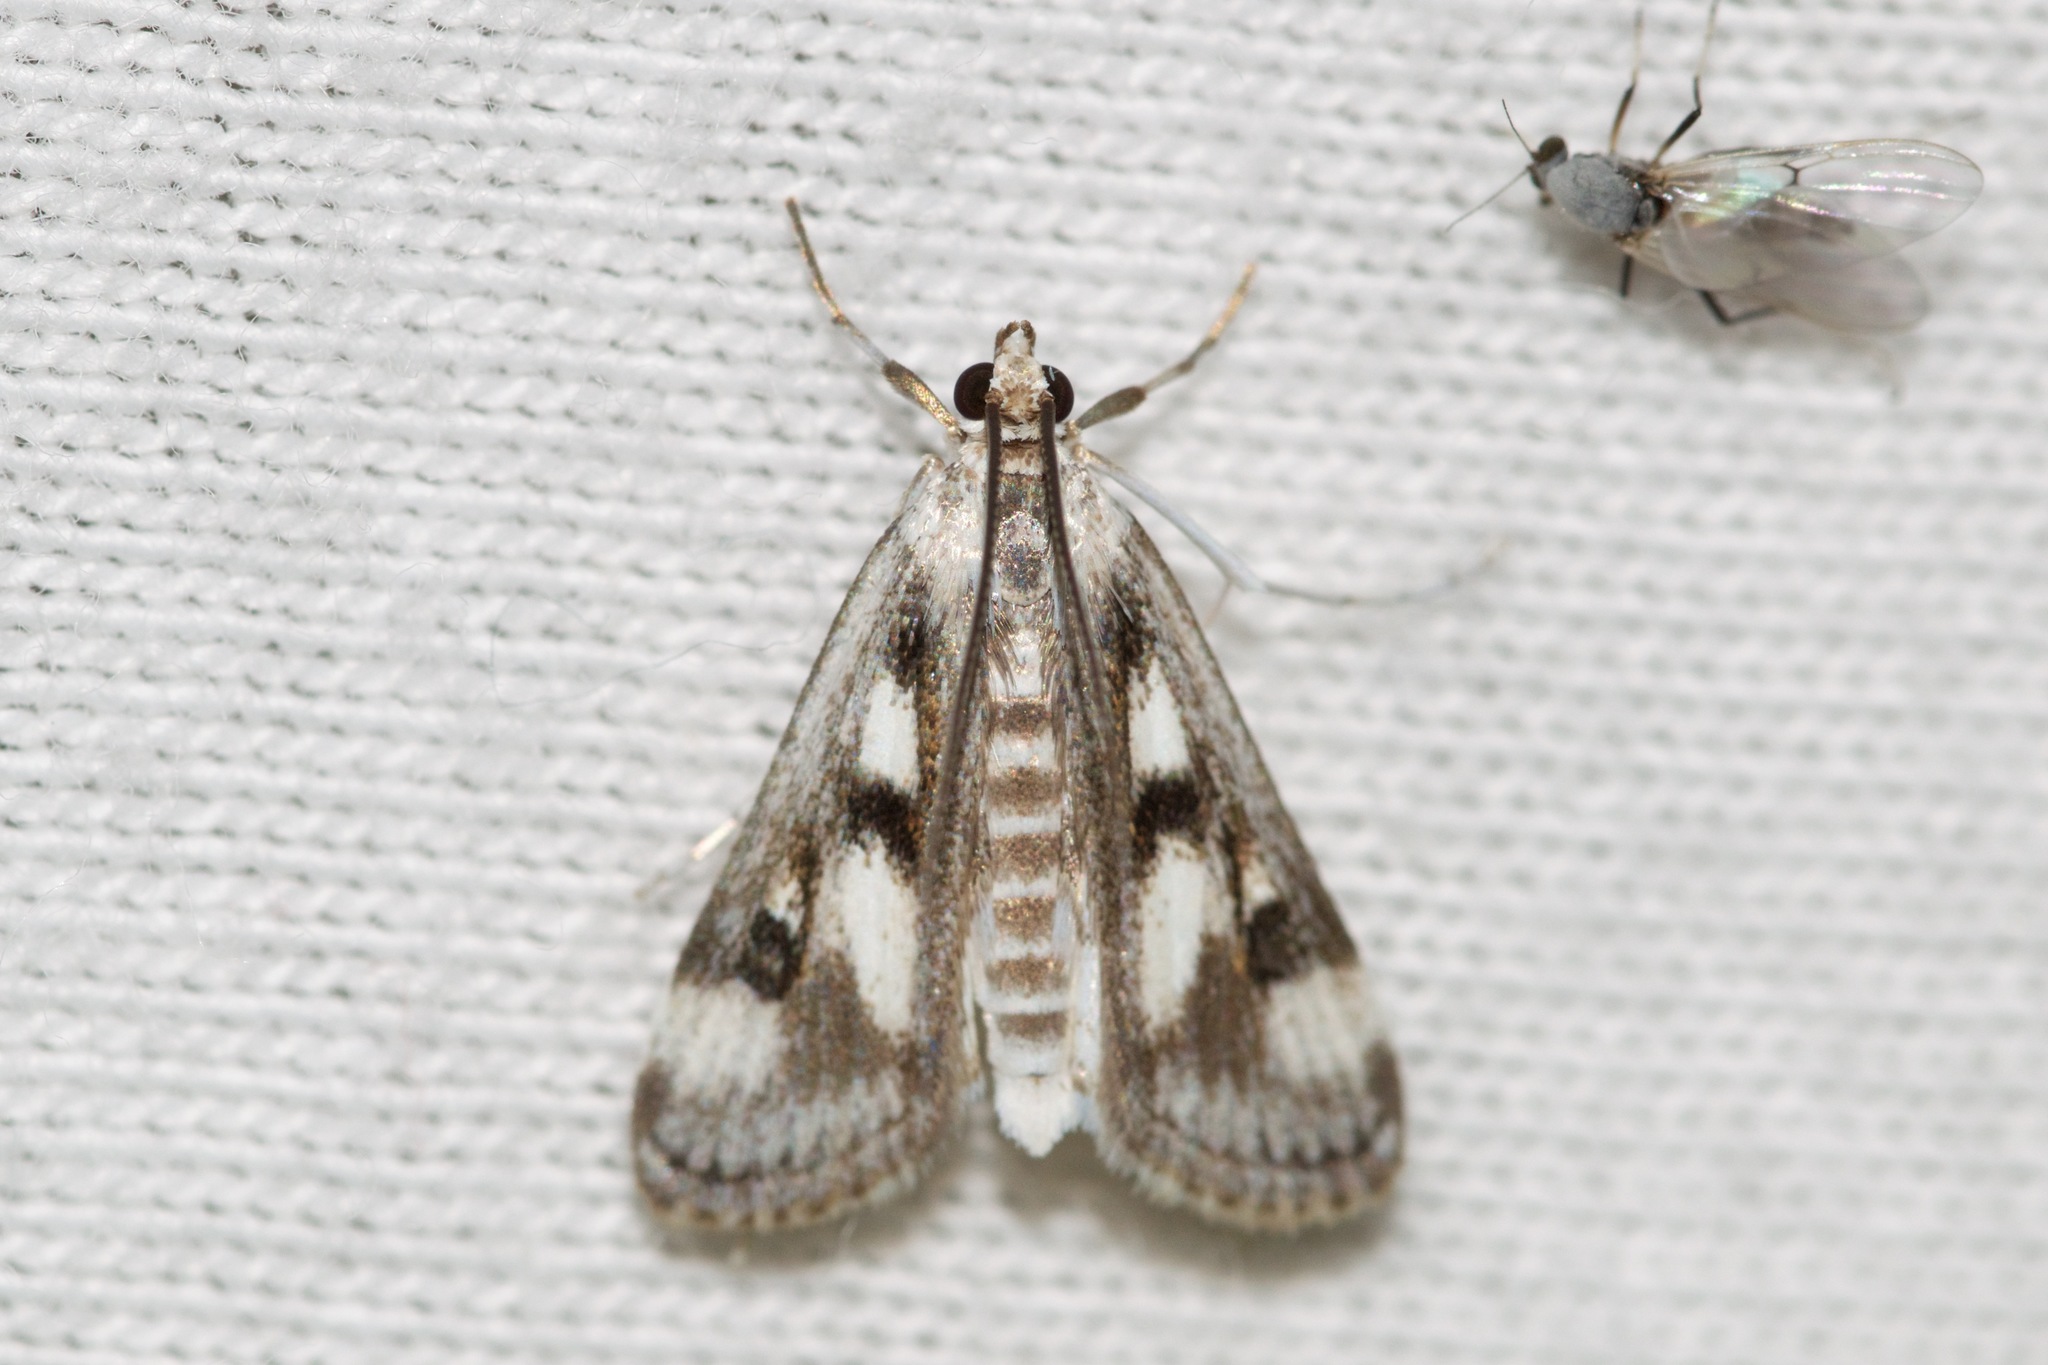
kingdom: Animalia
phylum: Arthropoda
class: Insecta
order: Lepidoptera
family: Crambidae
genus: Parapoynx
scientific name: Parapoynx maculalis
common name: Polymorphic pondweed moth
